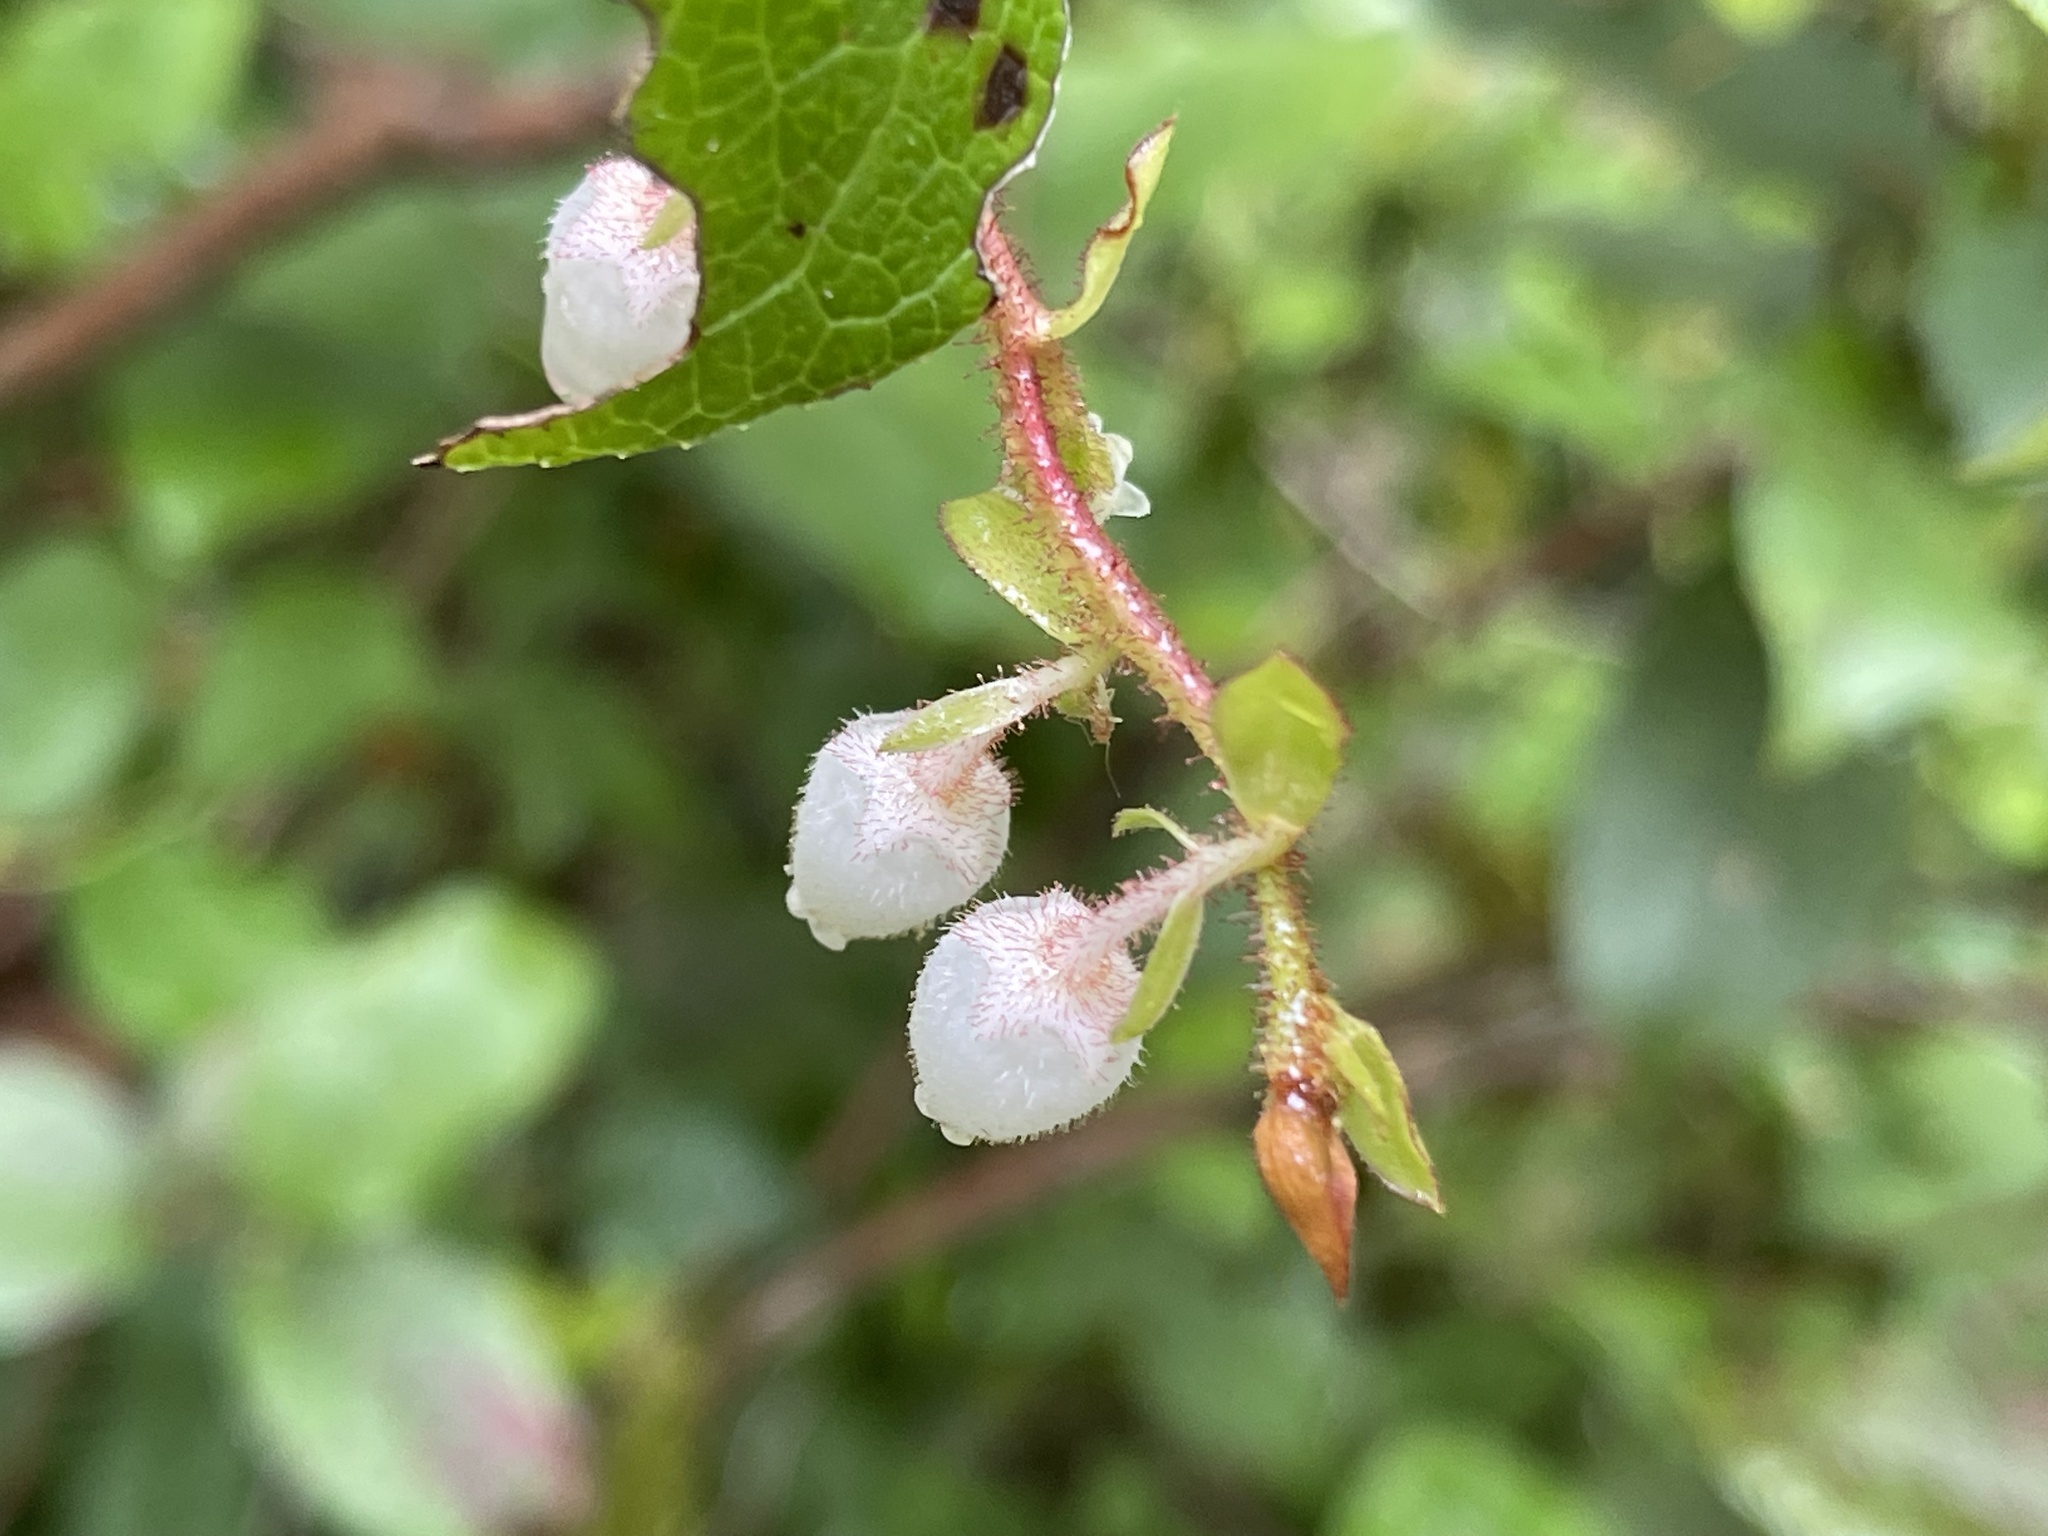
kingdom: Plantae
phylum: Tracheophyta
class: Magnoliopsida
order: Ericales
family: Ericaceae
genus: Gaultheria
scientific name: Gaultheria shallon
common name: Shallon
